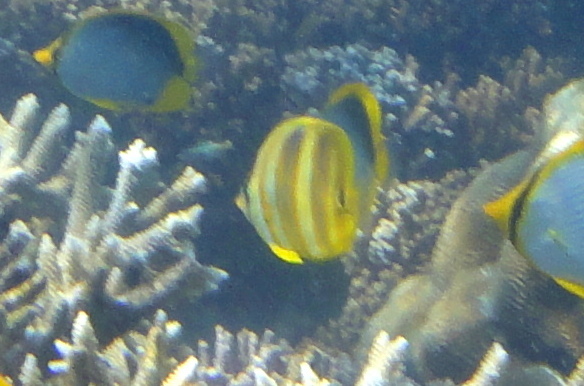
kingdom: Animalia
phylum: Chordata
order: Perciformes
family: Chaetodontidae
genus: Chaetodon
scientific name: Chaetodon rainfordi
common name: Rainford's butterflyfish
